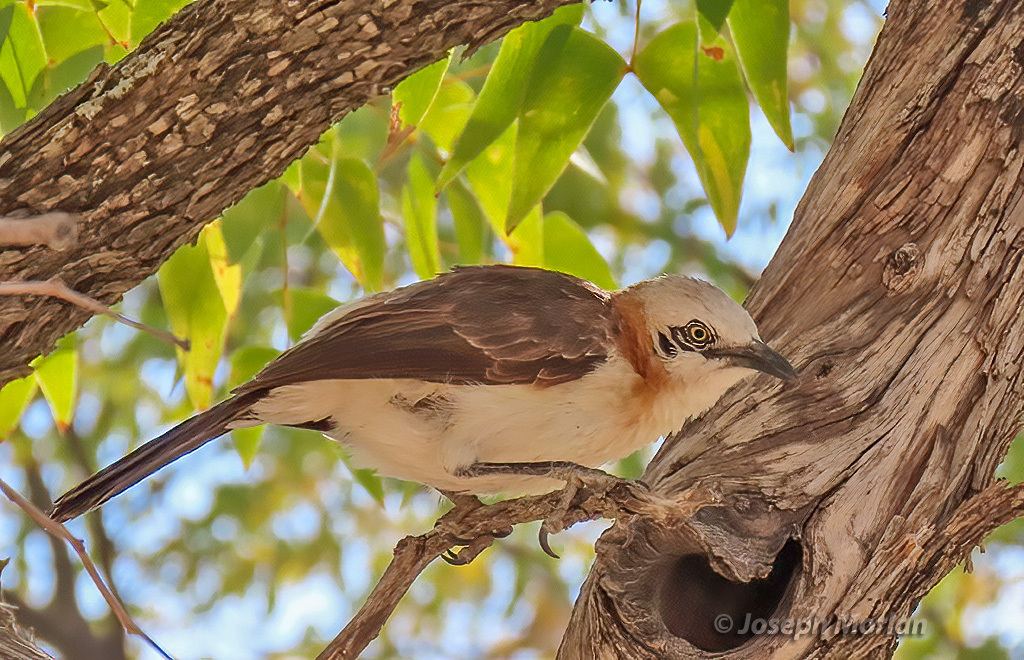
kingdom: Animalia
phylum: Chordata
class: Aves
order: Passeriformes
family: Leiothrichidae
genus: Turdoides
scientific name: Turdoides gymnogenys
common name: Bare-cheeked babbler
